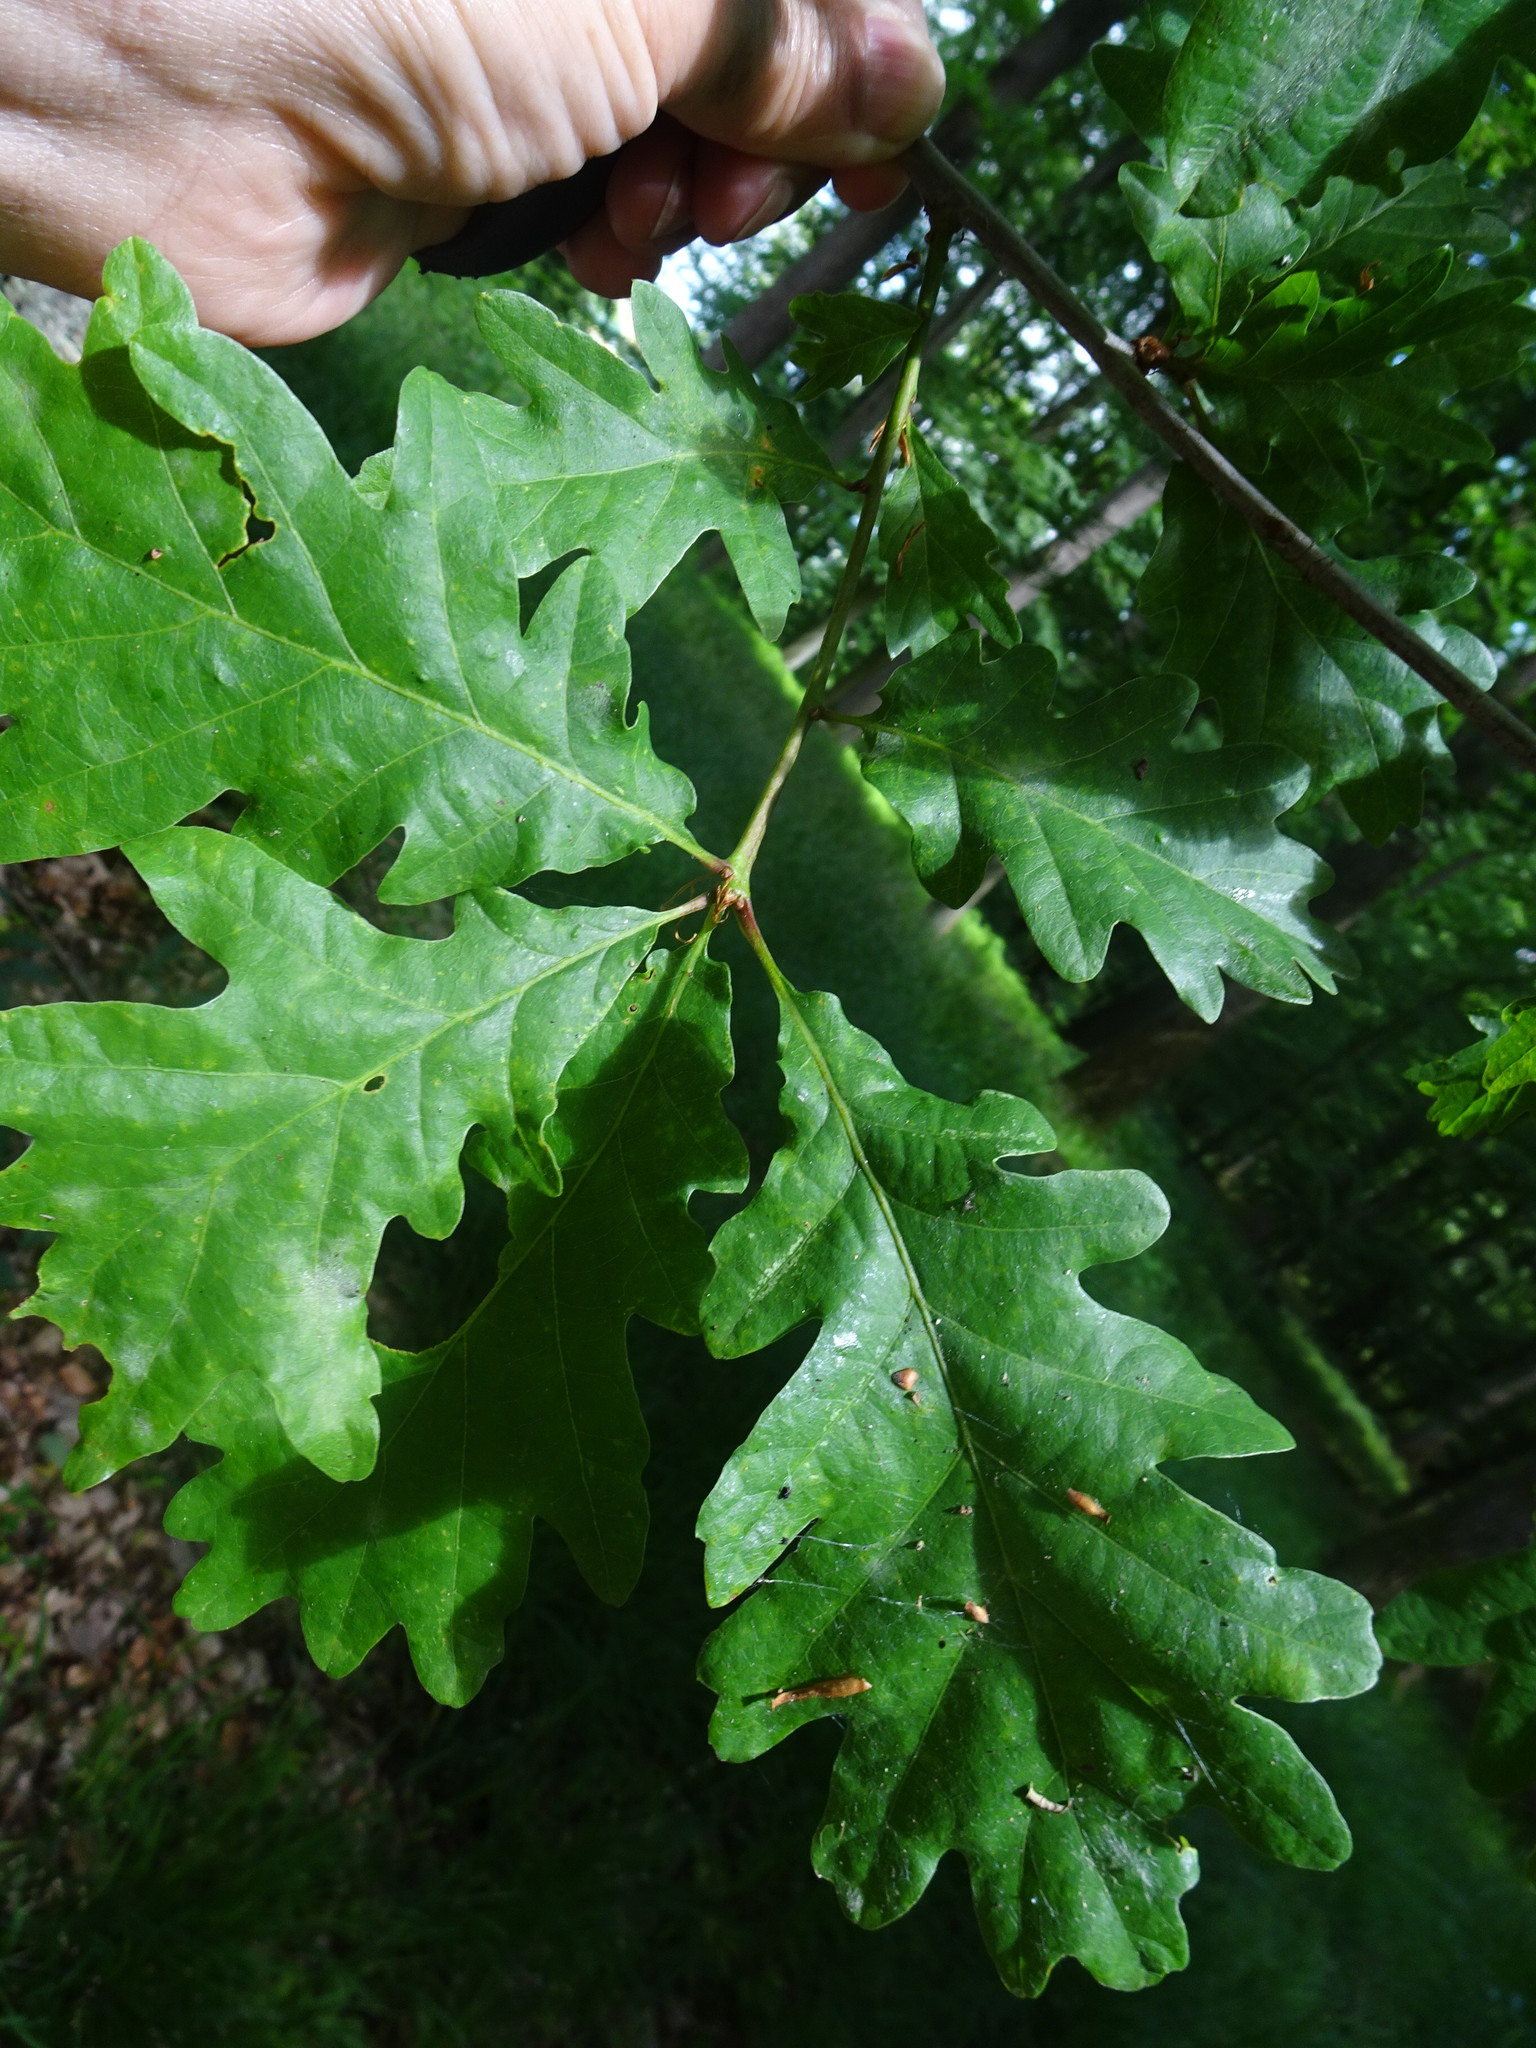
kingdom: Plantae
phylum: Tracheophyta
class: Magnoliopsida
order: Fagales
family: Fagaceae
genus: Quercus
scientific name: Quercus petraea
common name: Sessile oak
